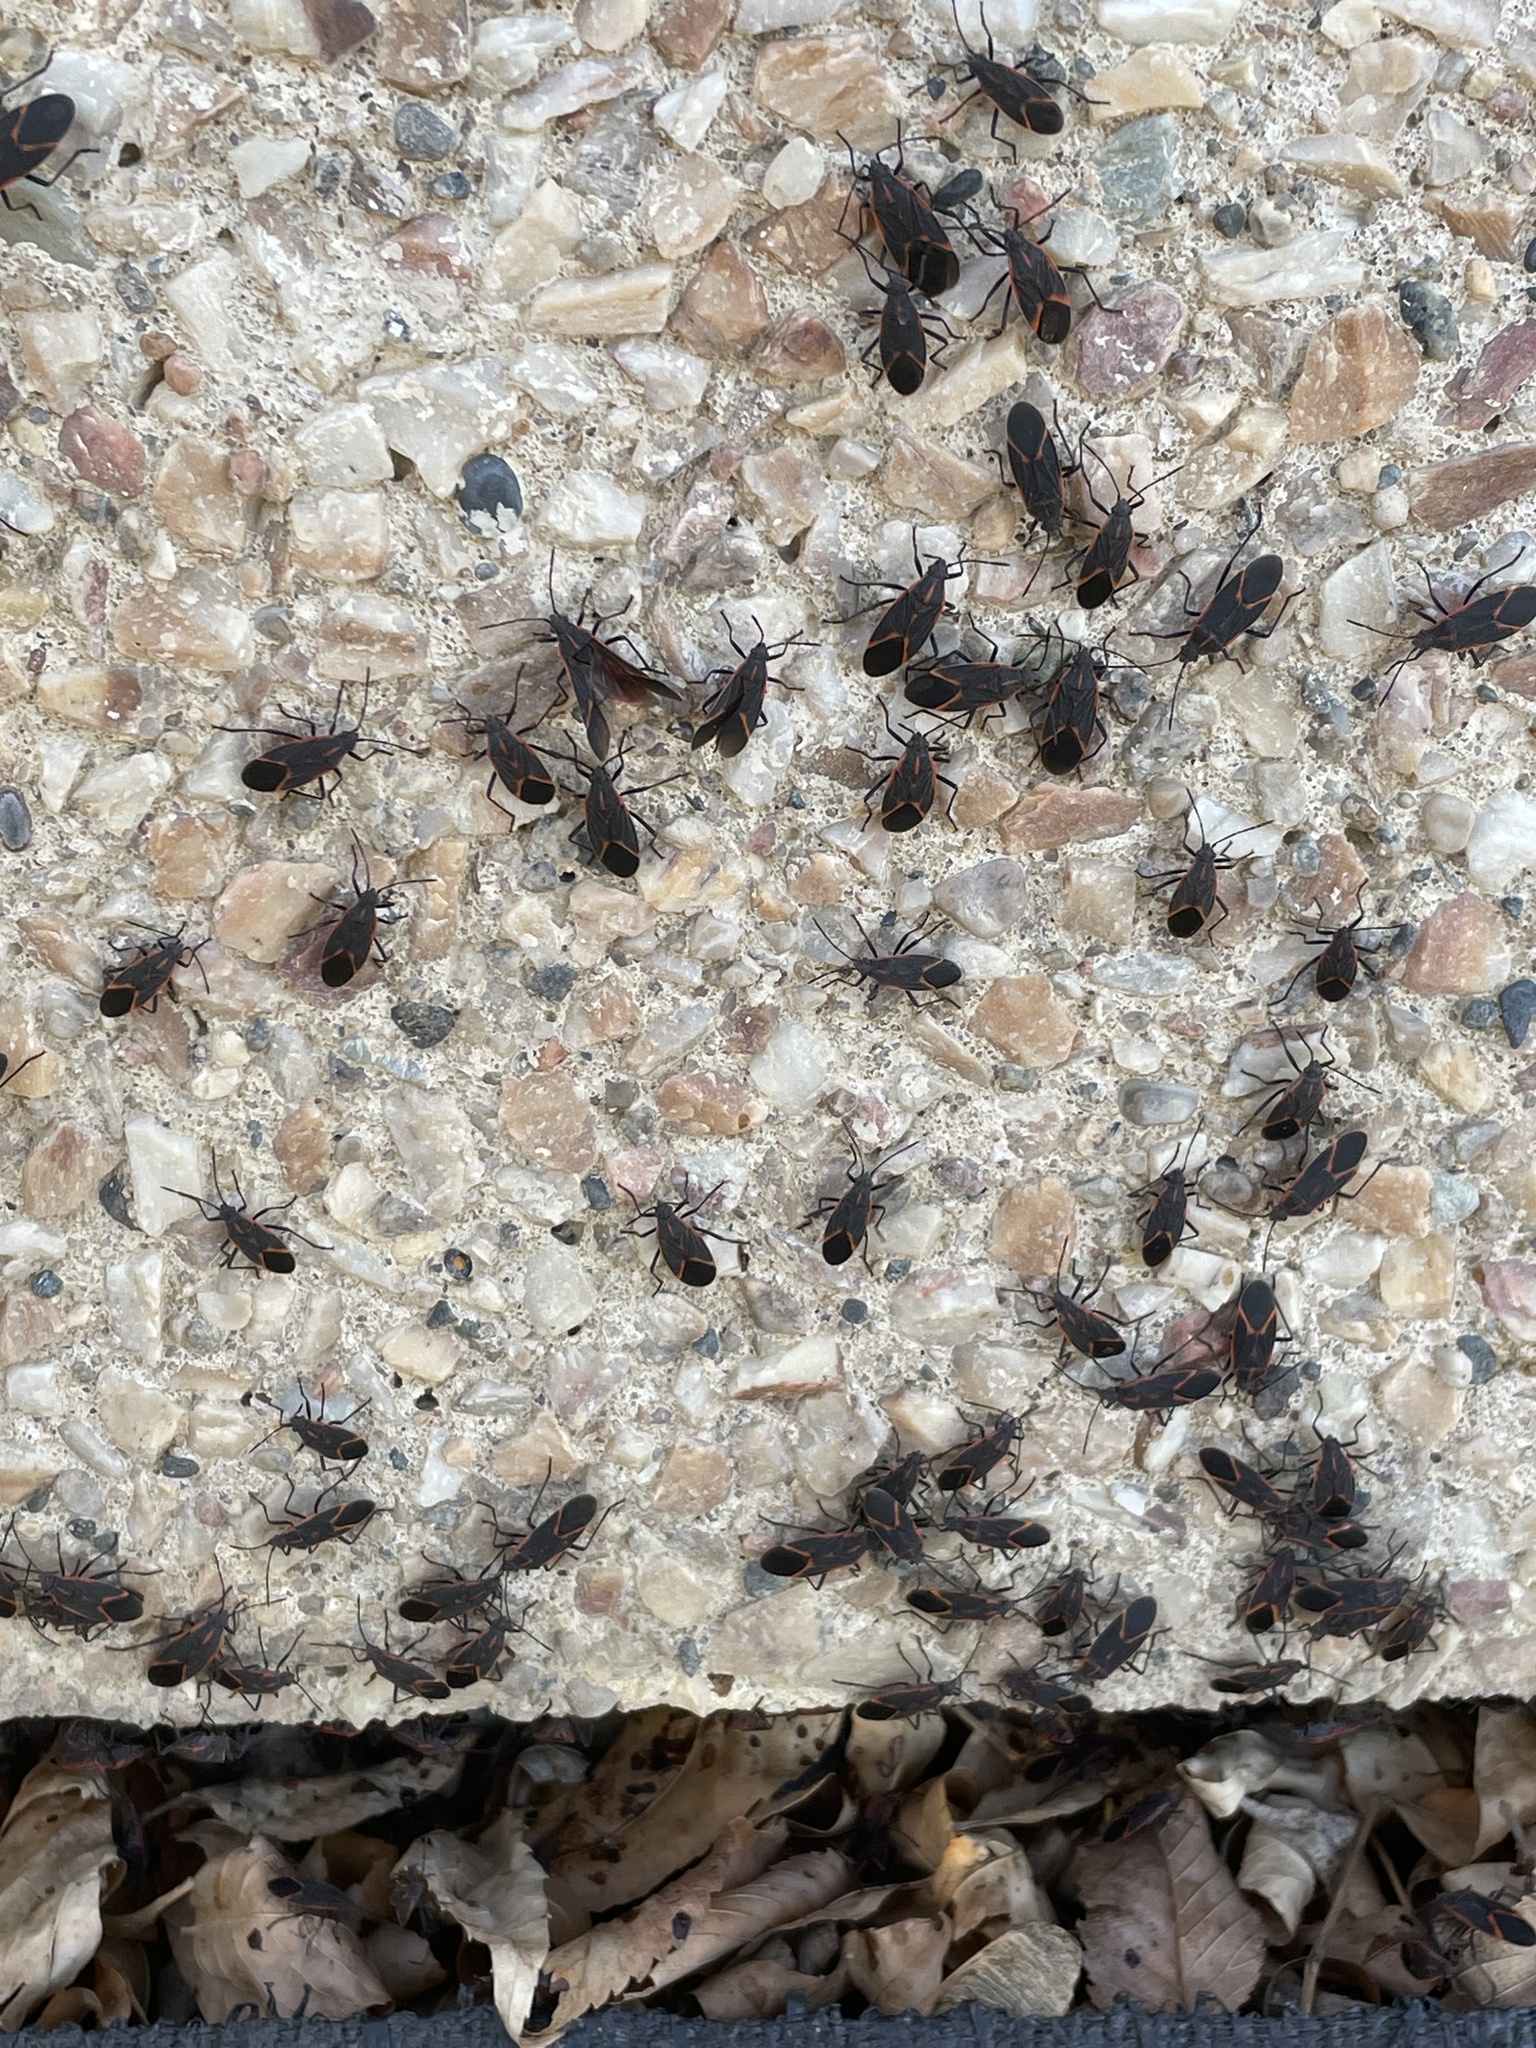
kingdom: Animalia
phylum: Arthropoda
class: Insecta
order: Hemiptera
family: Rhopalidae
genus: Boisea
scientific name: Boisea trivittata
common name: Boxelder bug
